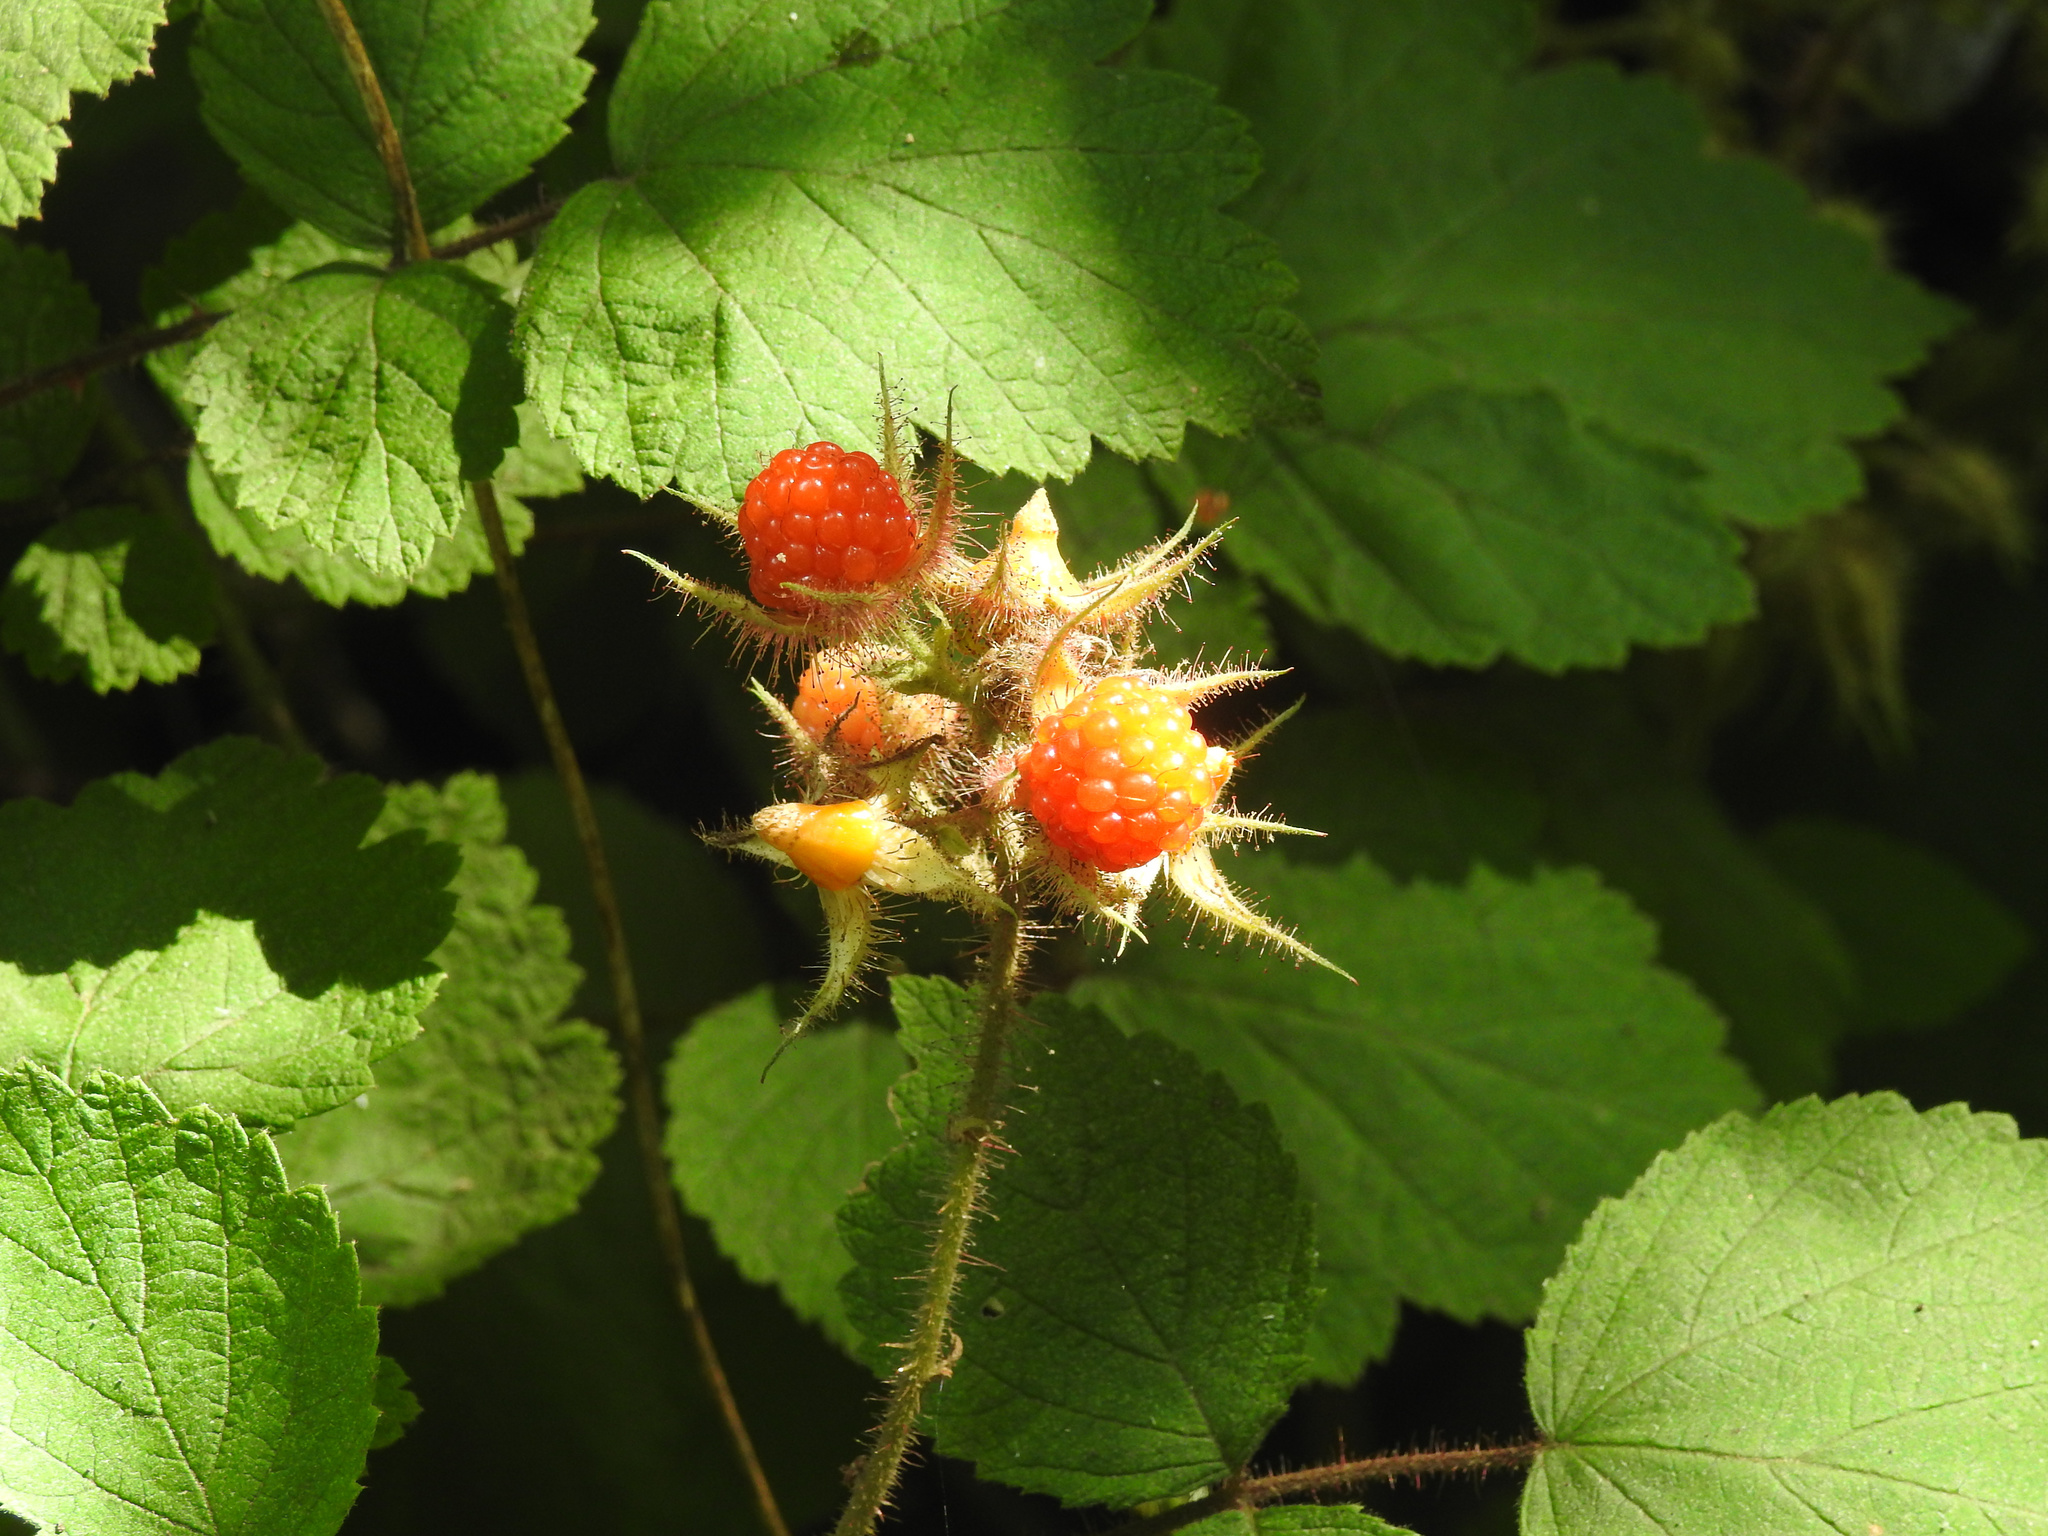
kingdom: Plantae
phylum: Tracheophyta
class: Magnoliopsida
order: Rosales
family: Rosaceae
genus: Rubus
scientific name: Rubus phoenicolasius
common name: Japanese wineberry
